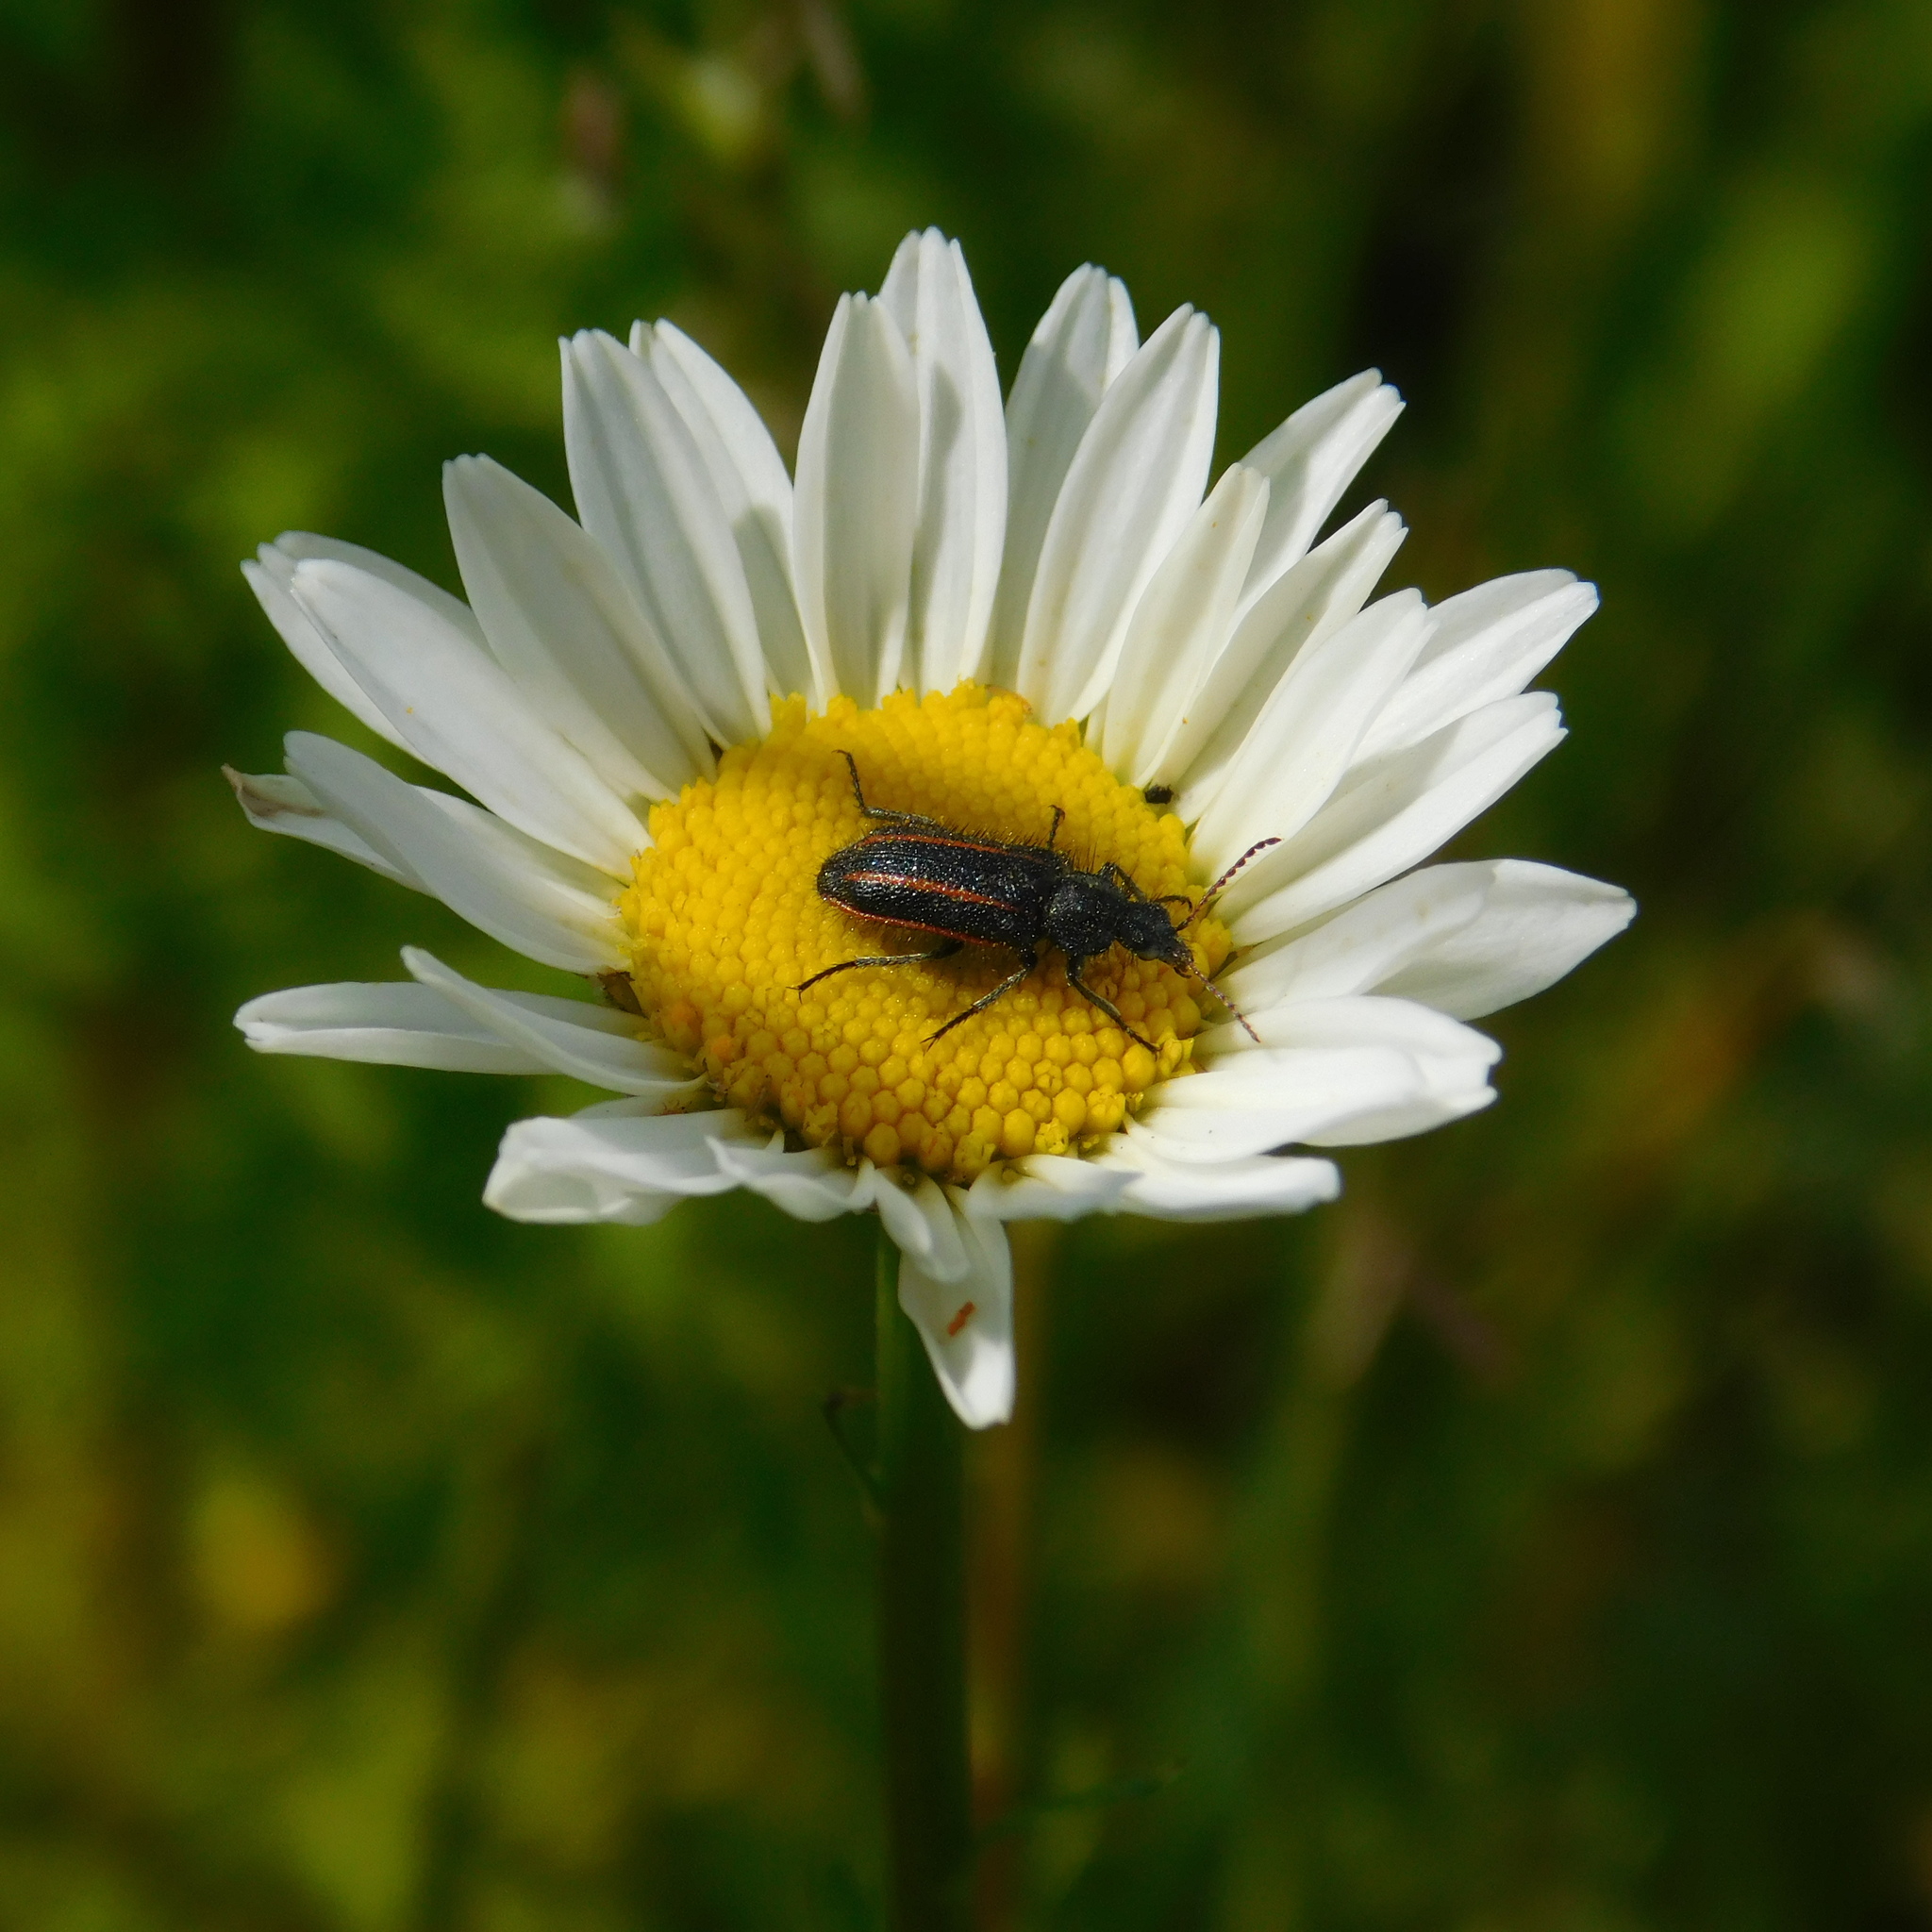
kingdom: Animalia
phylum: Arthropoda
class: Insecta
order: Coleoptera
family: Melyridae
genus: Astylus
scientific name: Astylus
